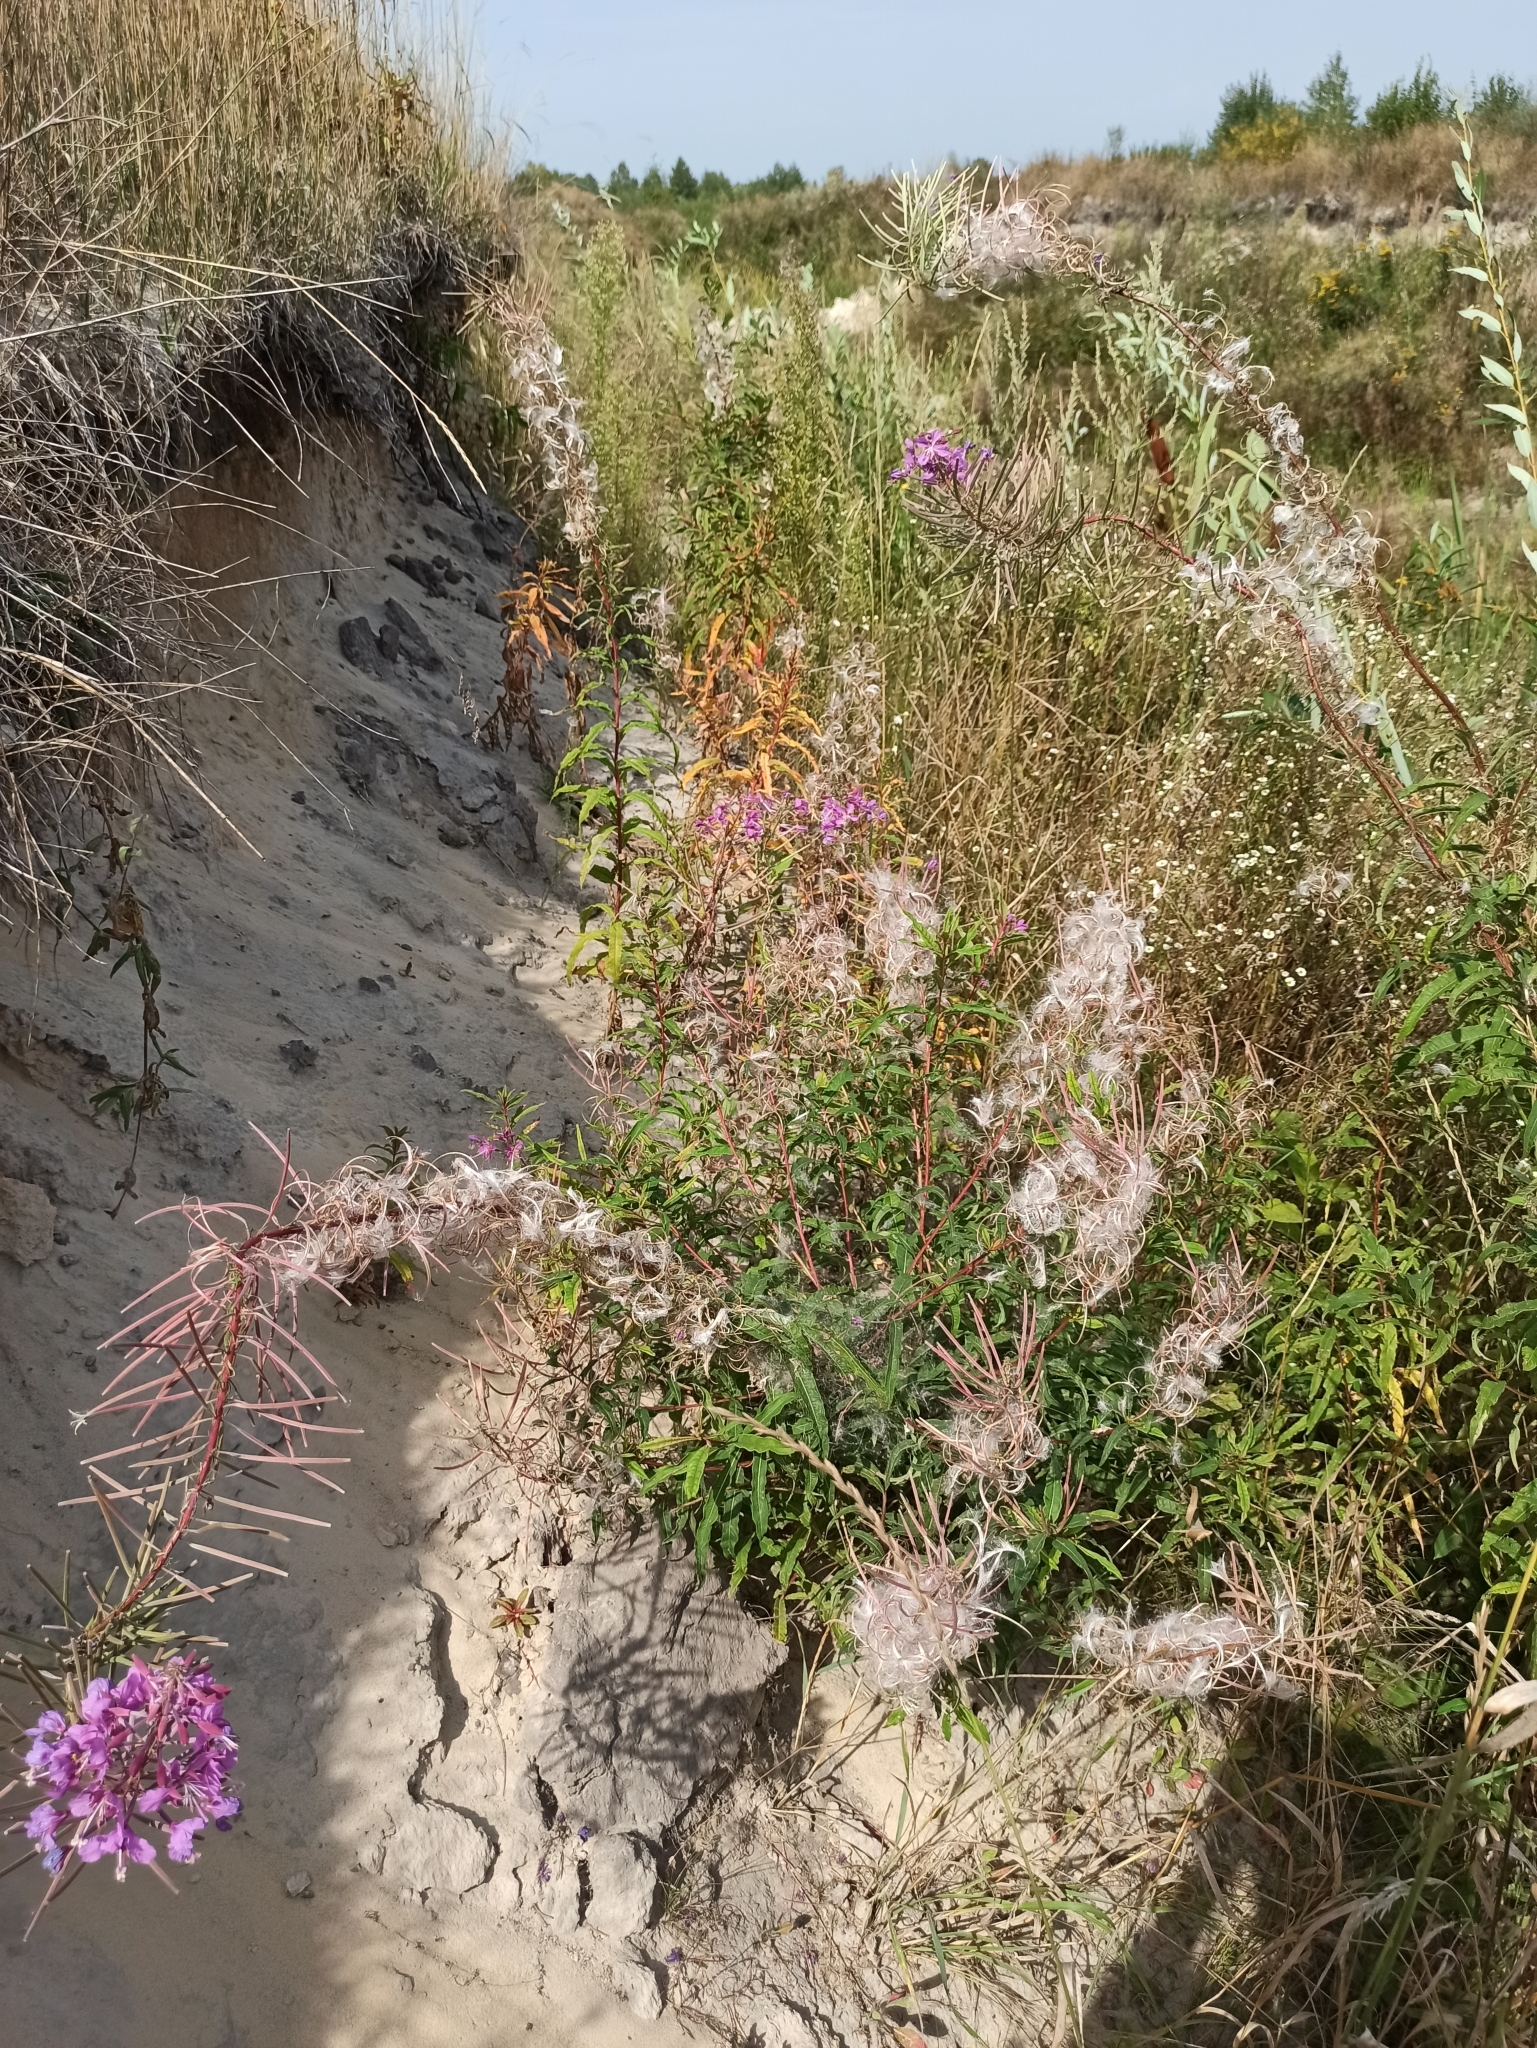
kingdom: Plantae
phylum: Tracheophyta
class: Magnoliopsida
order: Myrtales
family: Onagraceae
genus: Chamaenerion
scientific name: Chamaenerion angustifolium
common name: Fireweed
